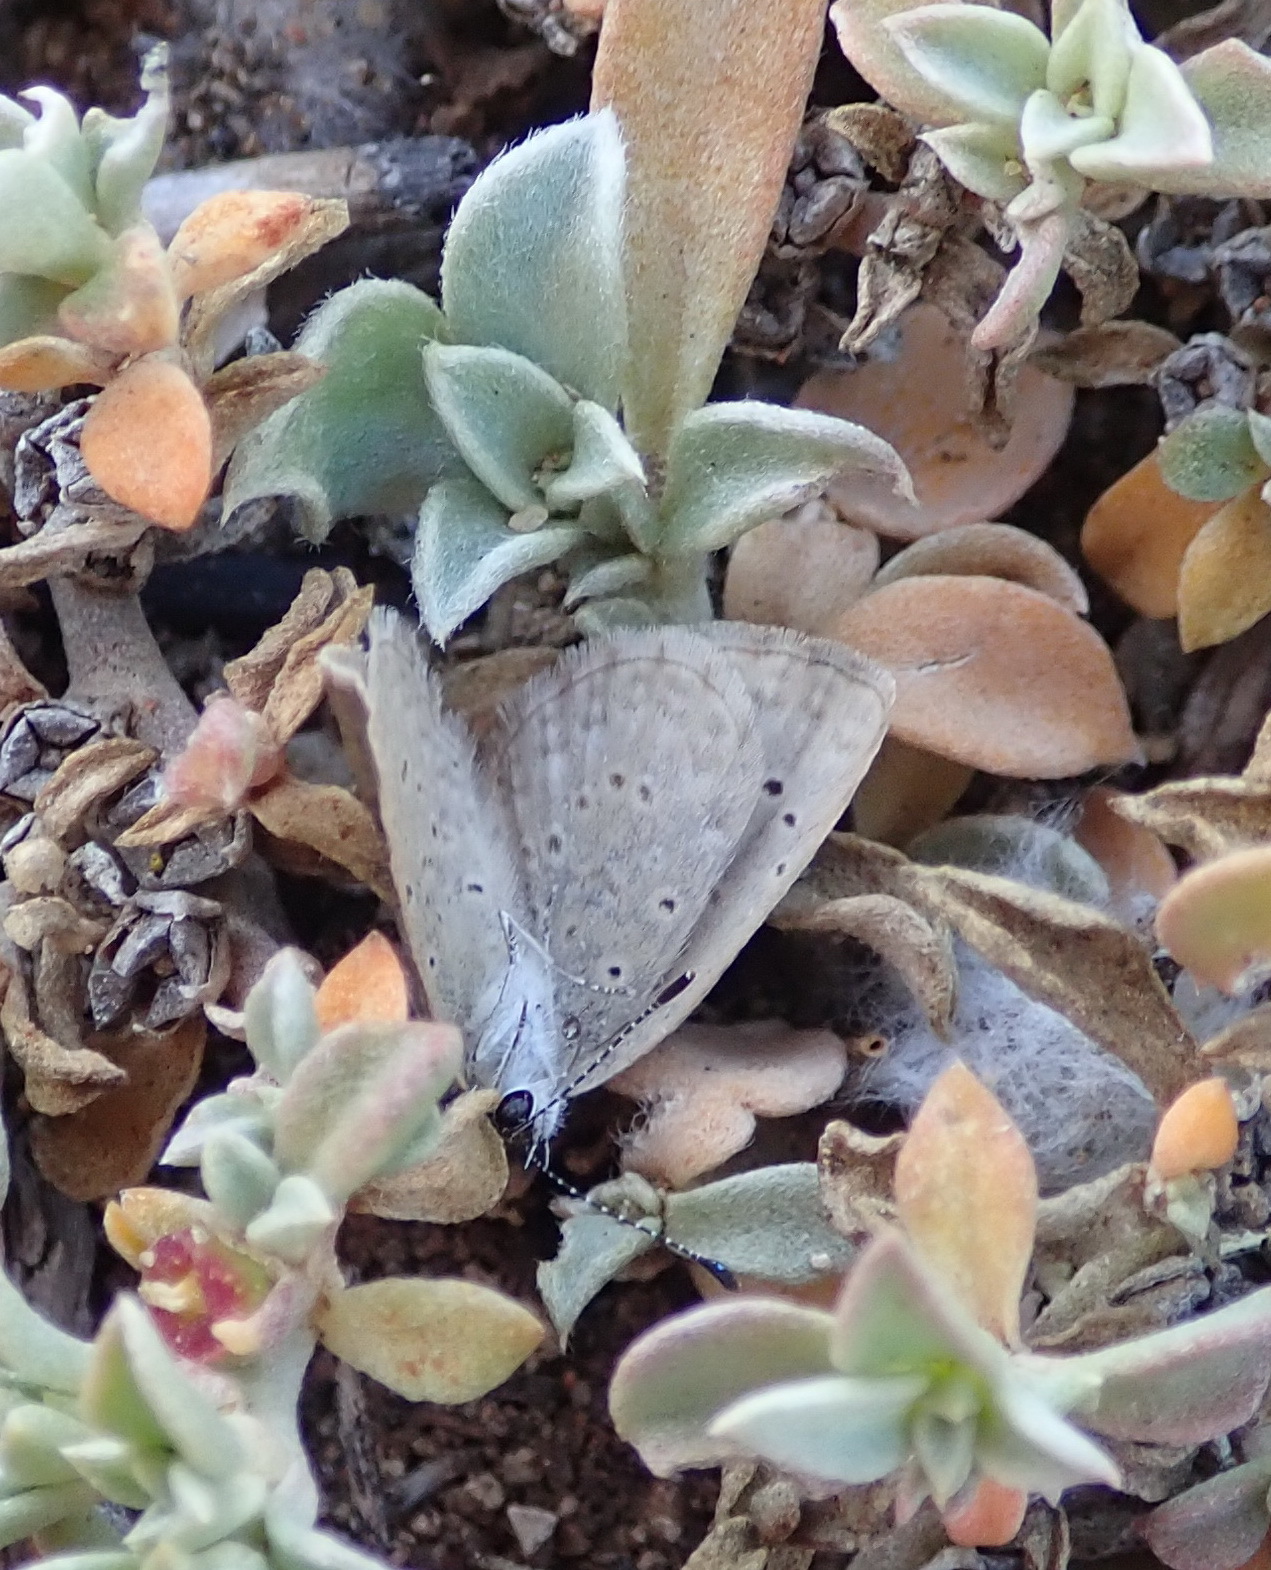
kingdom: Animalia
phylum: Arthropoda
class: Insecta
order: Lepidoptera
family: Lycaenidae
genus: Zizeeria
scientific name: Zizeeria knysna
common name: African grass blue
